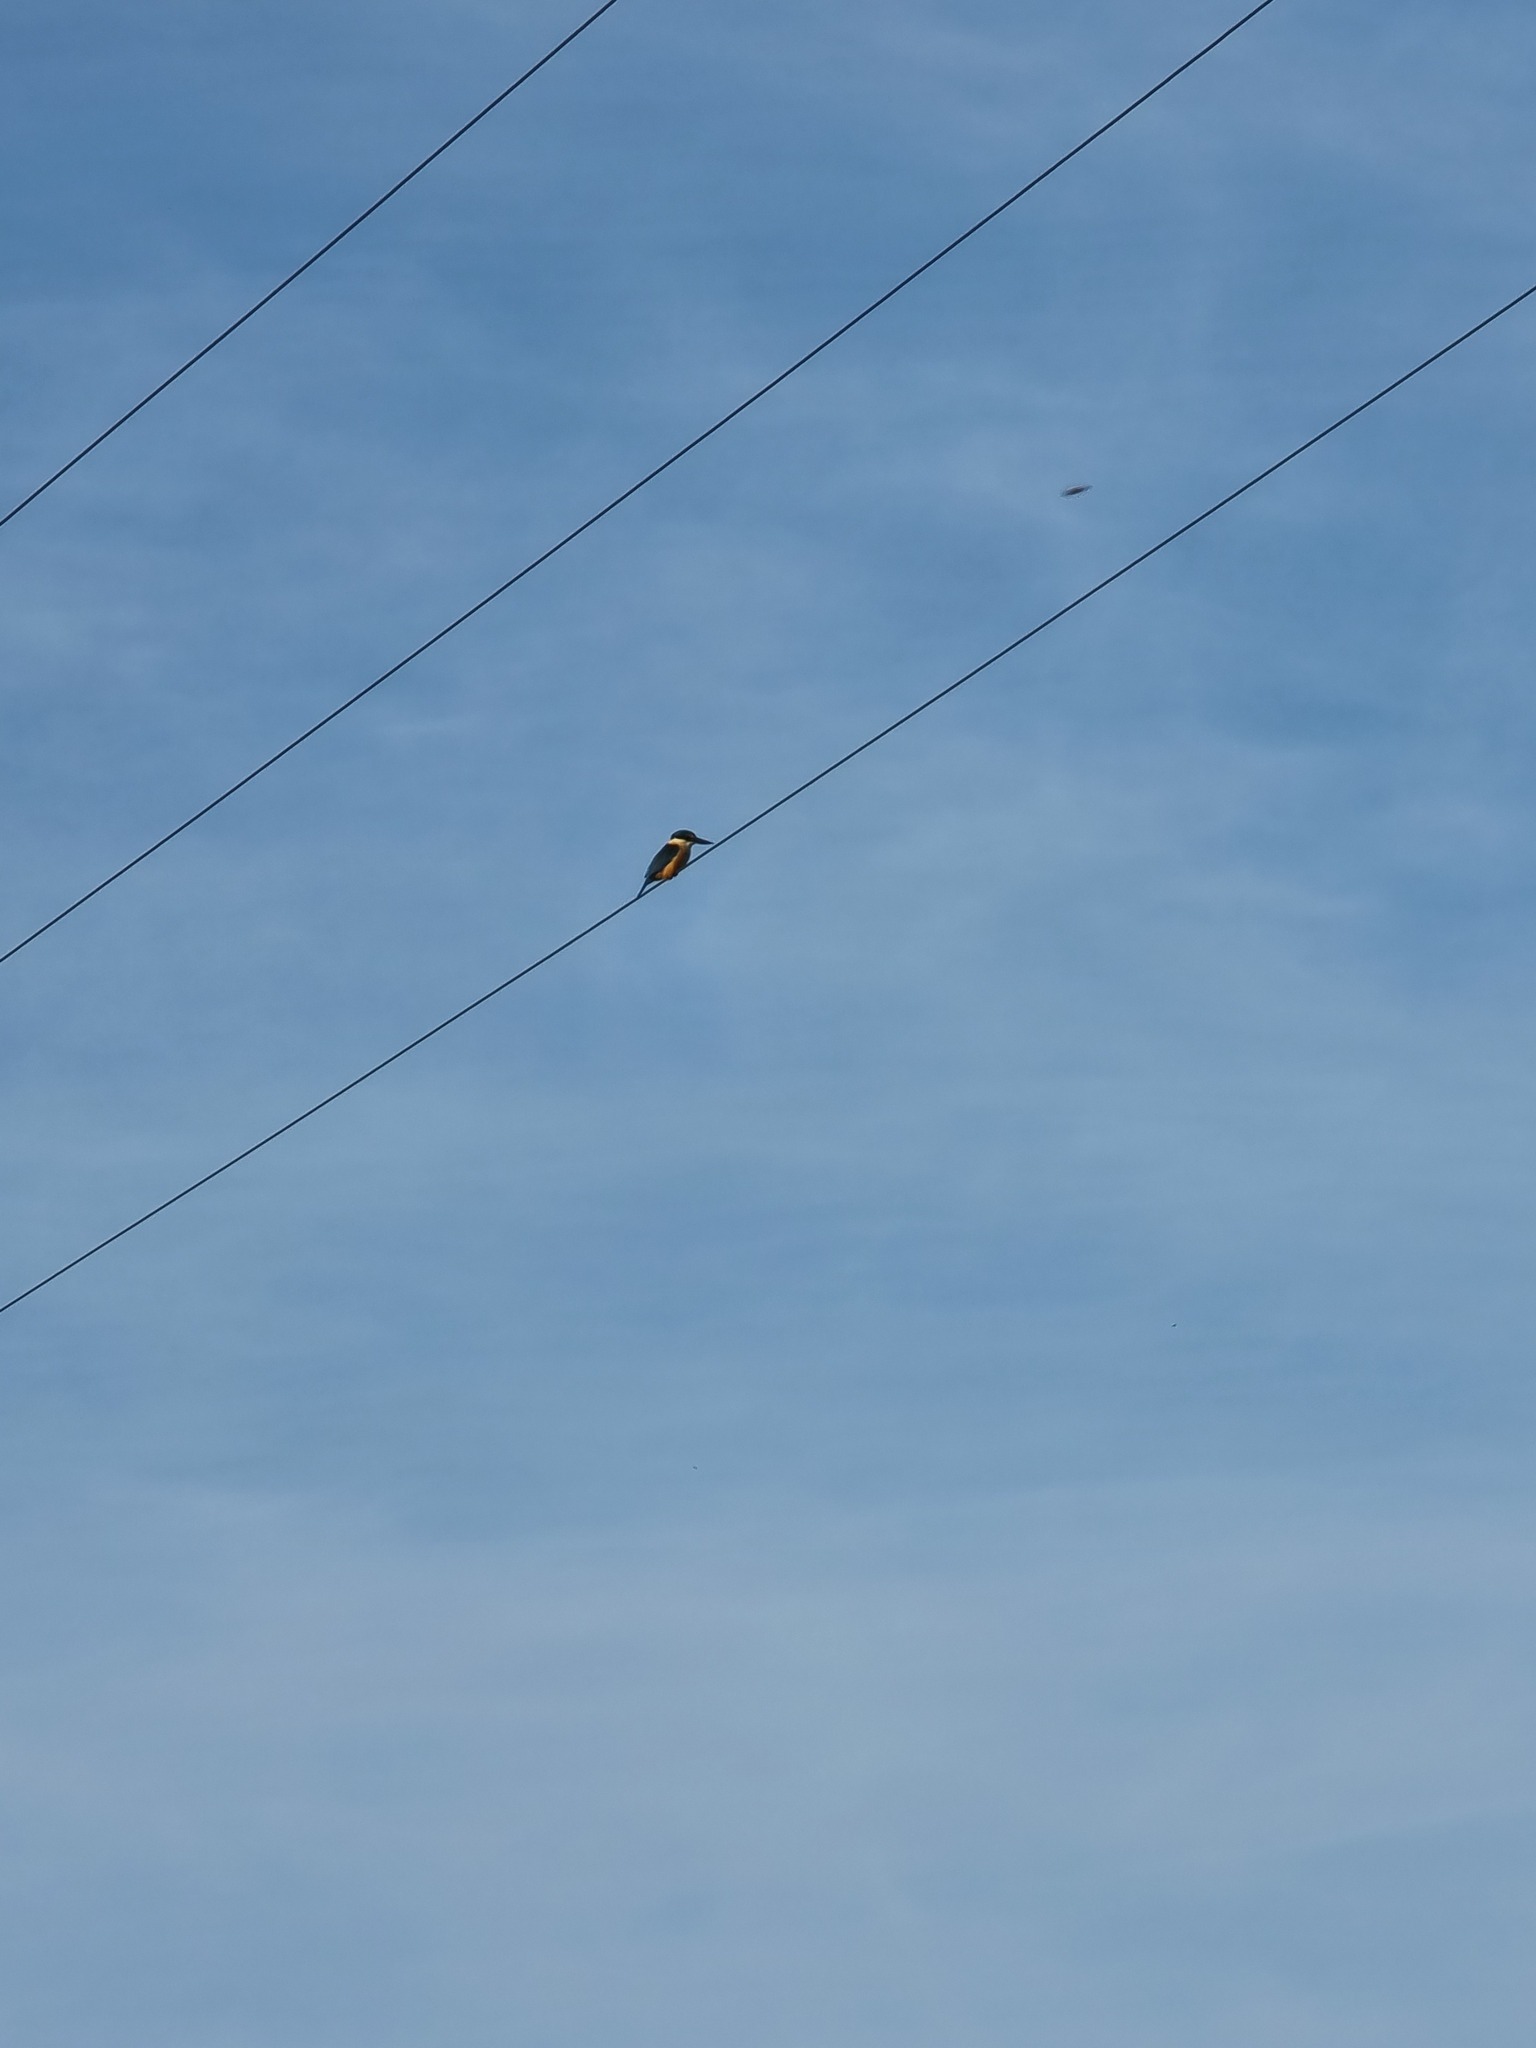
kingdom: Animalia
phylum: Chordata
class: Aves
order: Coraciiformes
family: Alcedinidae
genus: Todiramphus
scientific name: Todiramphus sanctus
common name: Sacred kingfisher
